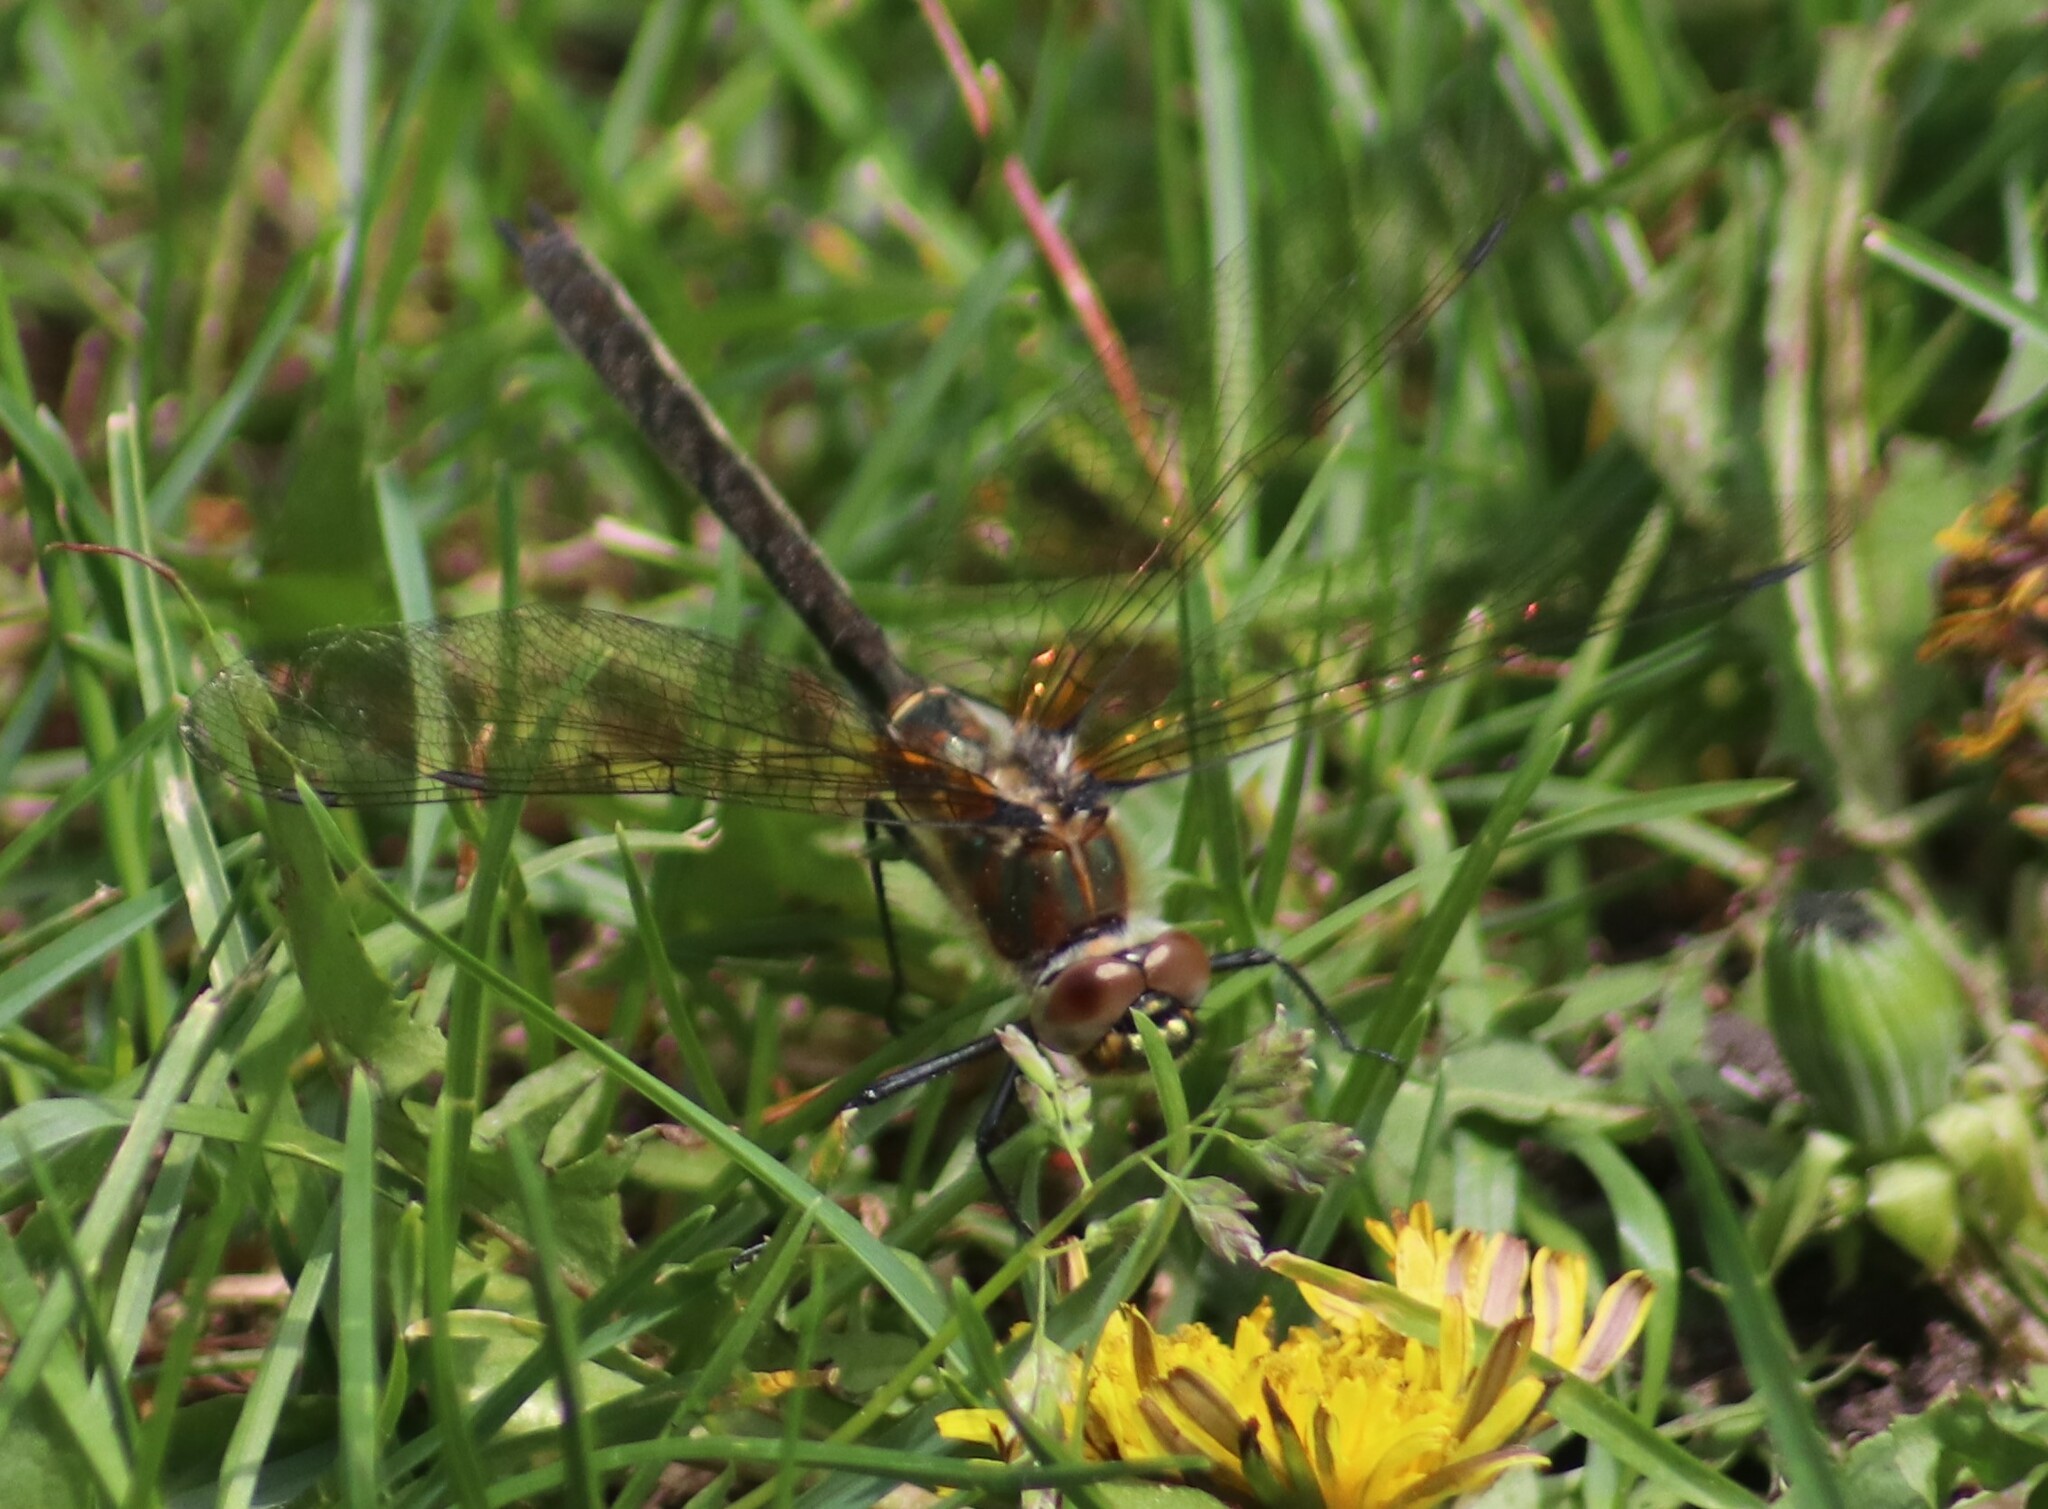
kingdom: Animalia
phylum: Arthropoda
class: Insecta
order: Odonata
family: Corduliidae
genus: Cordulia
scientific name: Cordulia shurtleffii
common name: American emerald
